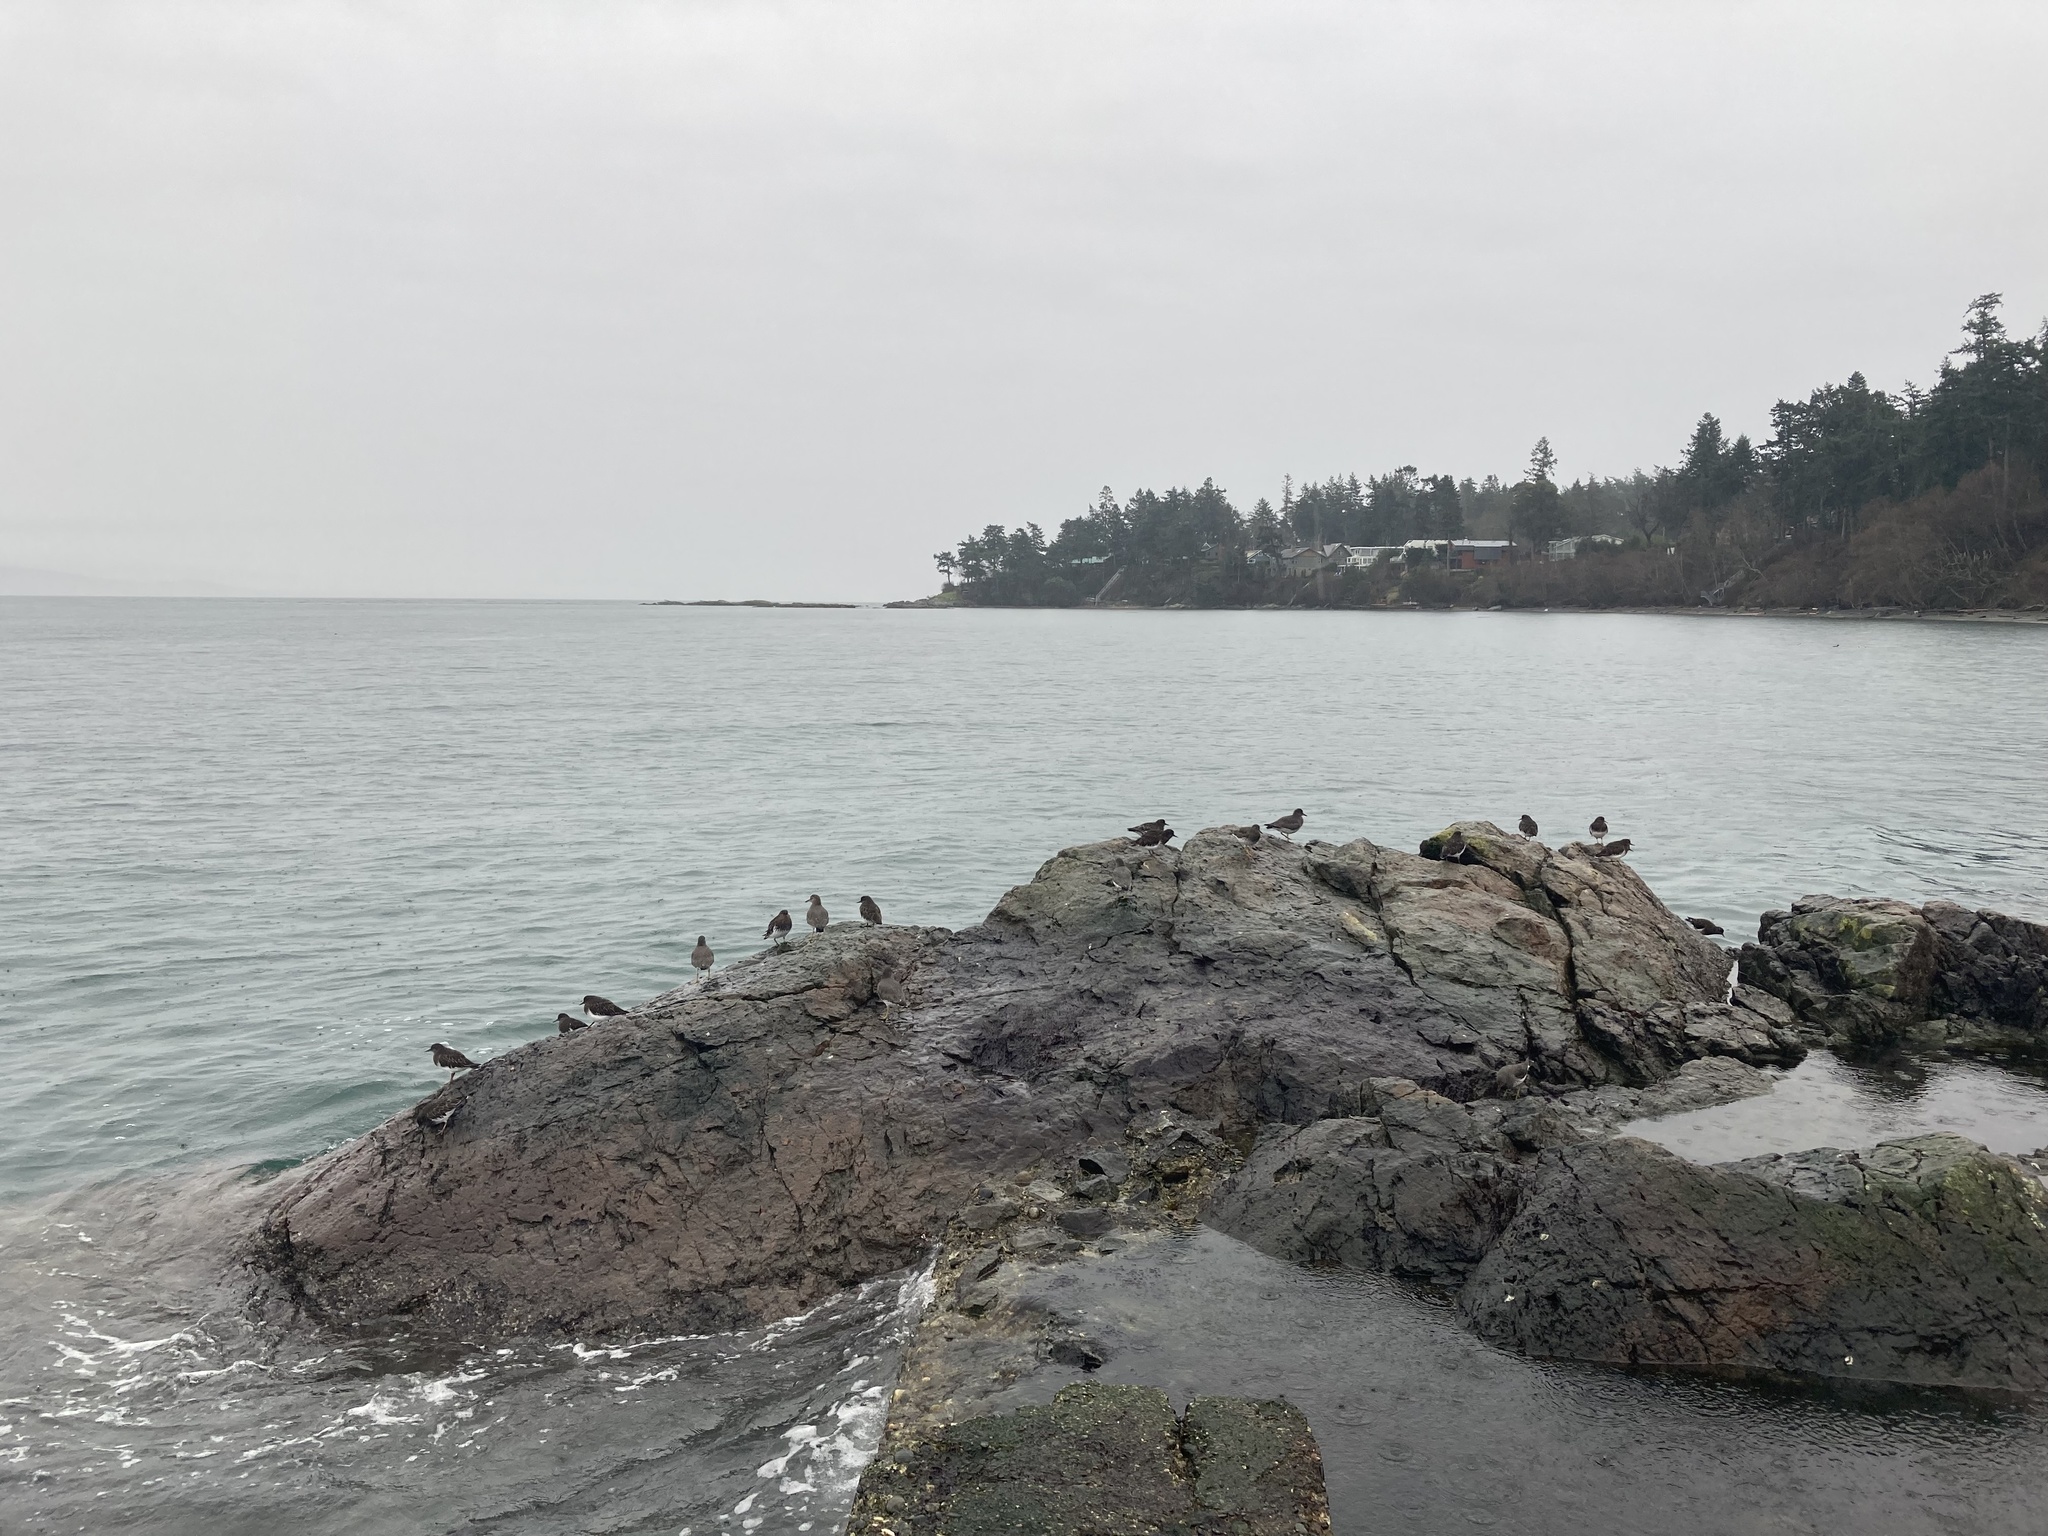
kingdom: Animalia
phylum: Chordata
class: Aves
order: Charadriiformes
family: Scolopacidae
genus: Arenaria
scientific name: Arenaria melanocephala
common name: Black turnstone
